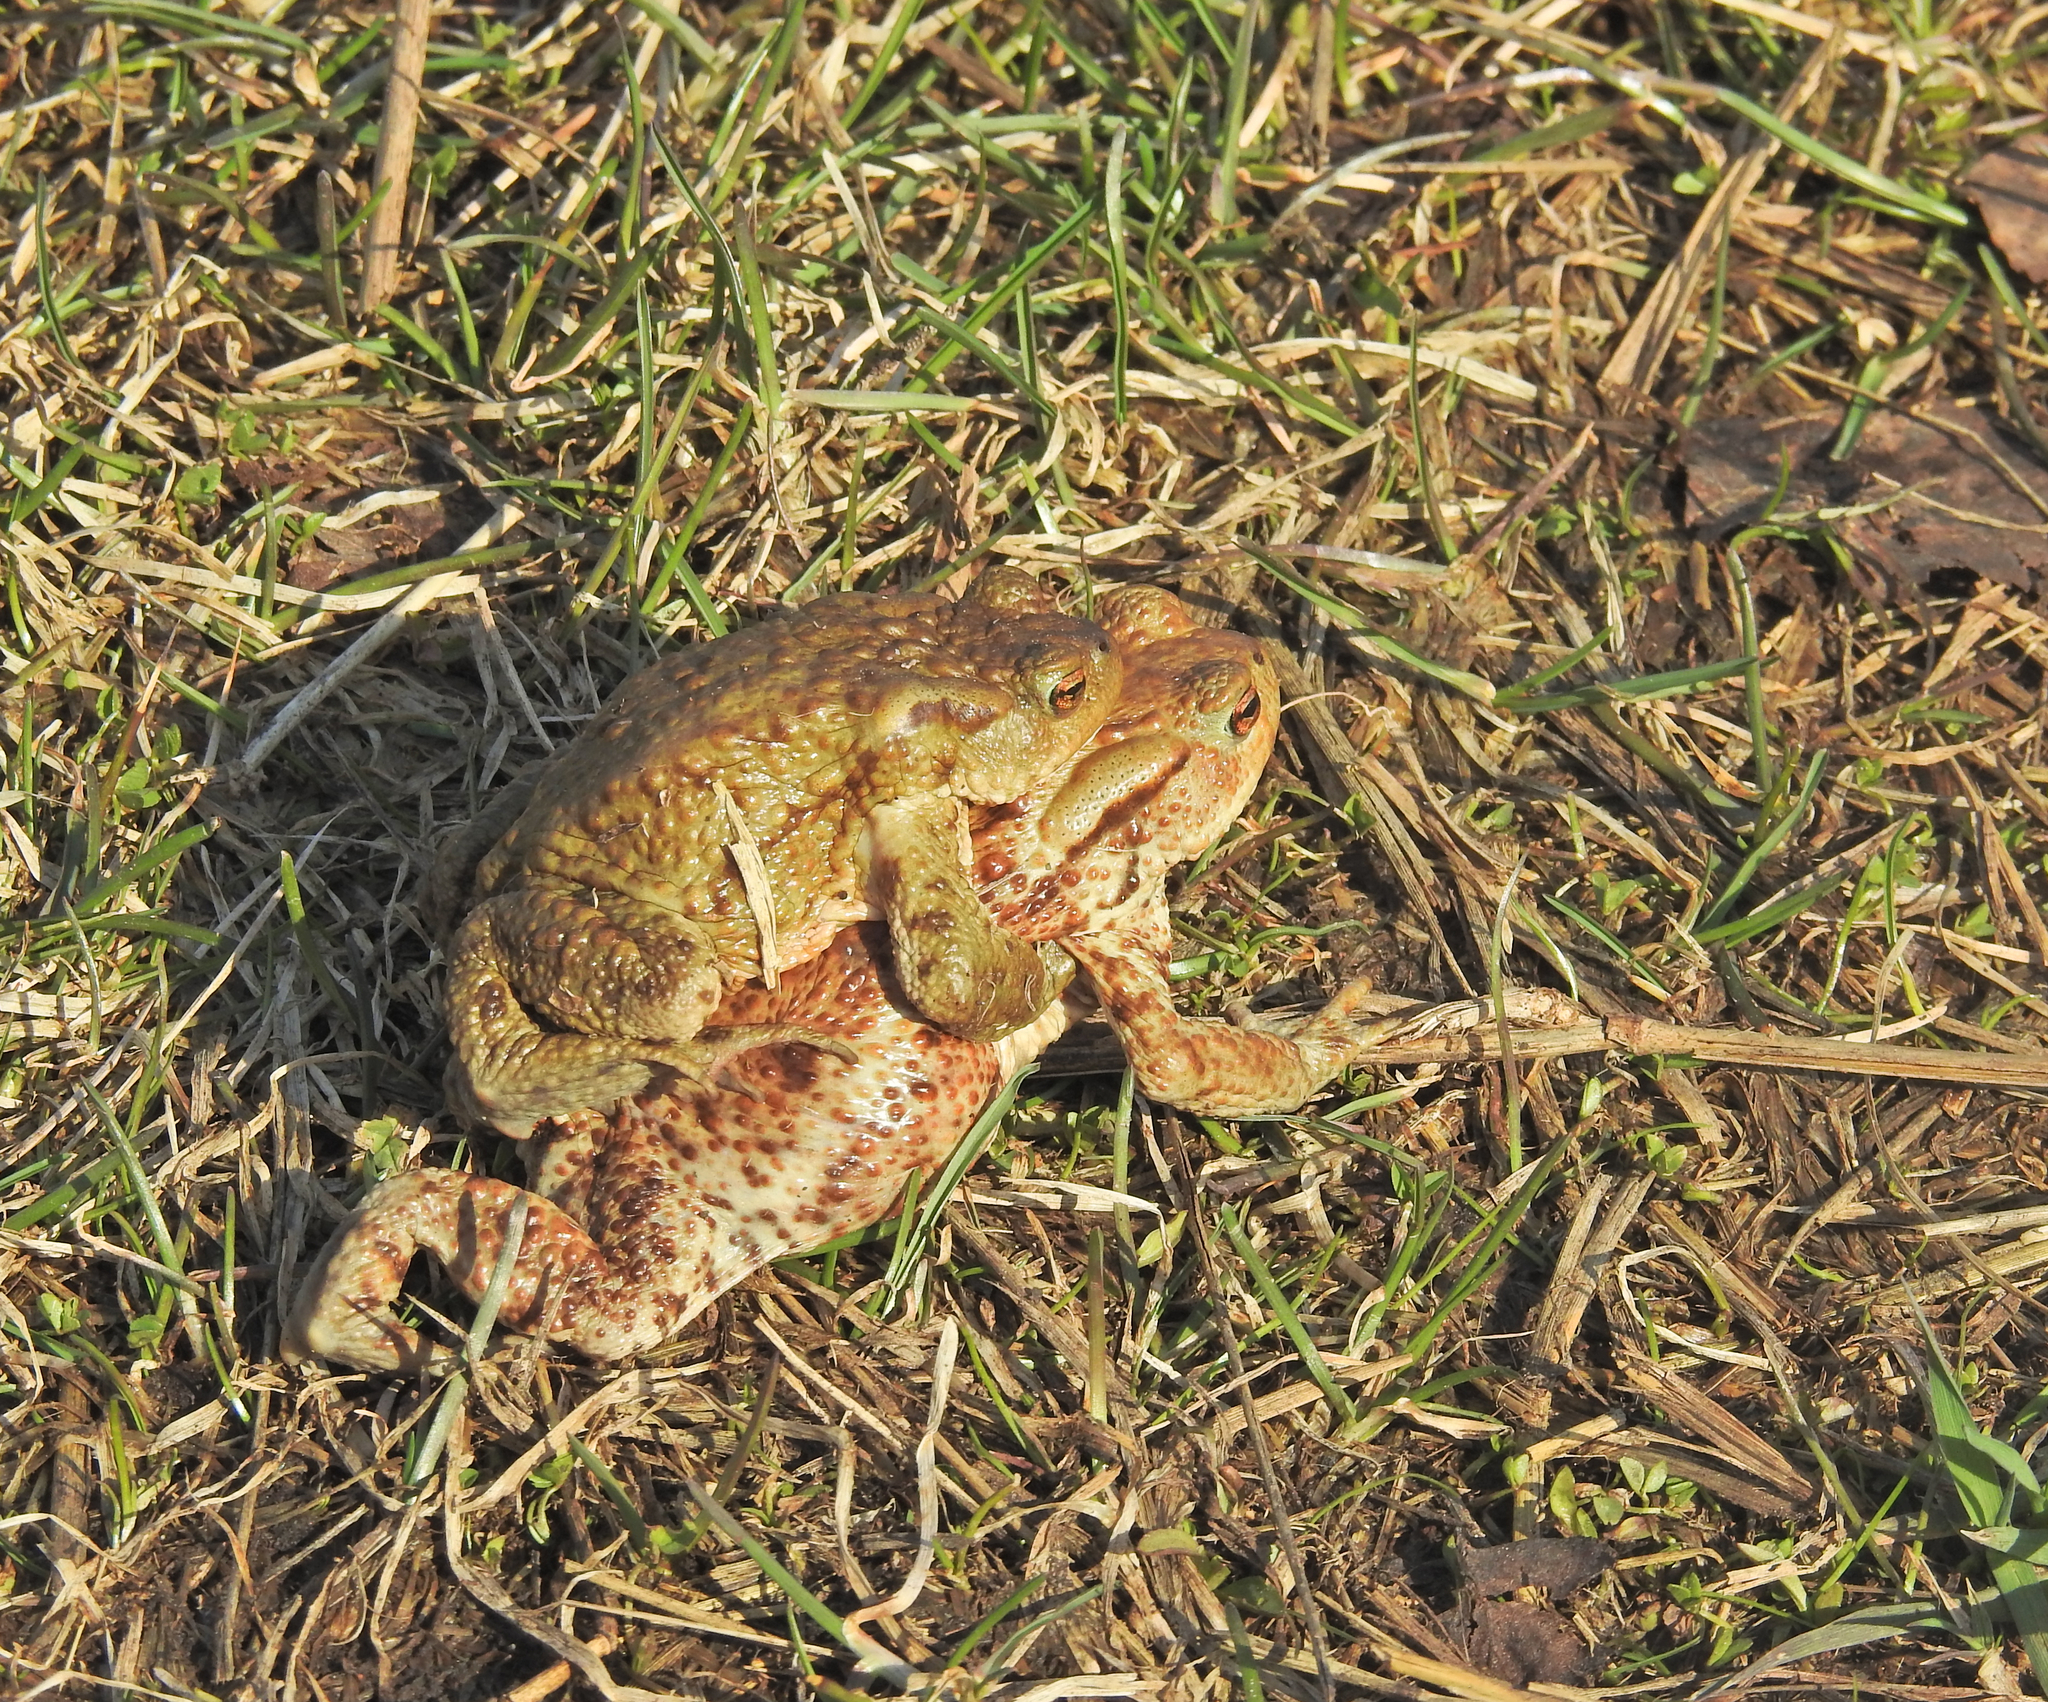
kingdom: Animalia
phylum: Chordata
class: Amphibia
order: Anura
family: Bufonidae
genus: Bufo
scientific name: Bufo bufo
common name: Common toad
